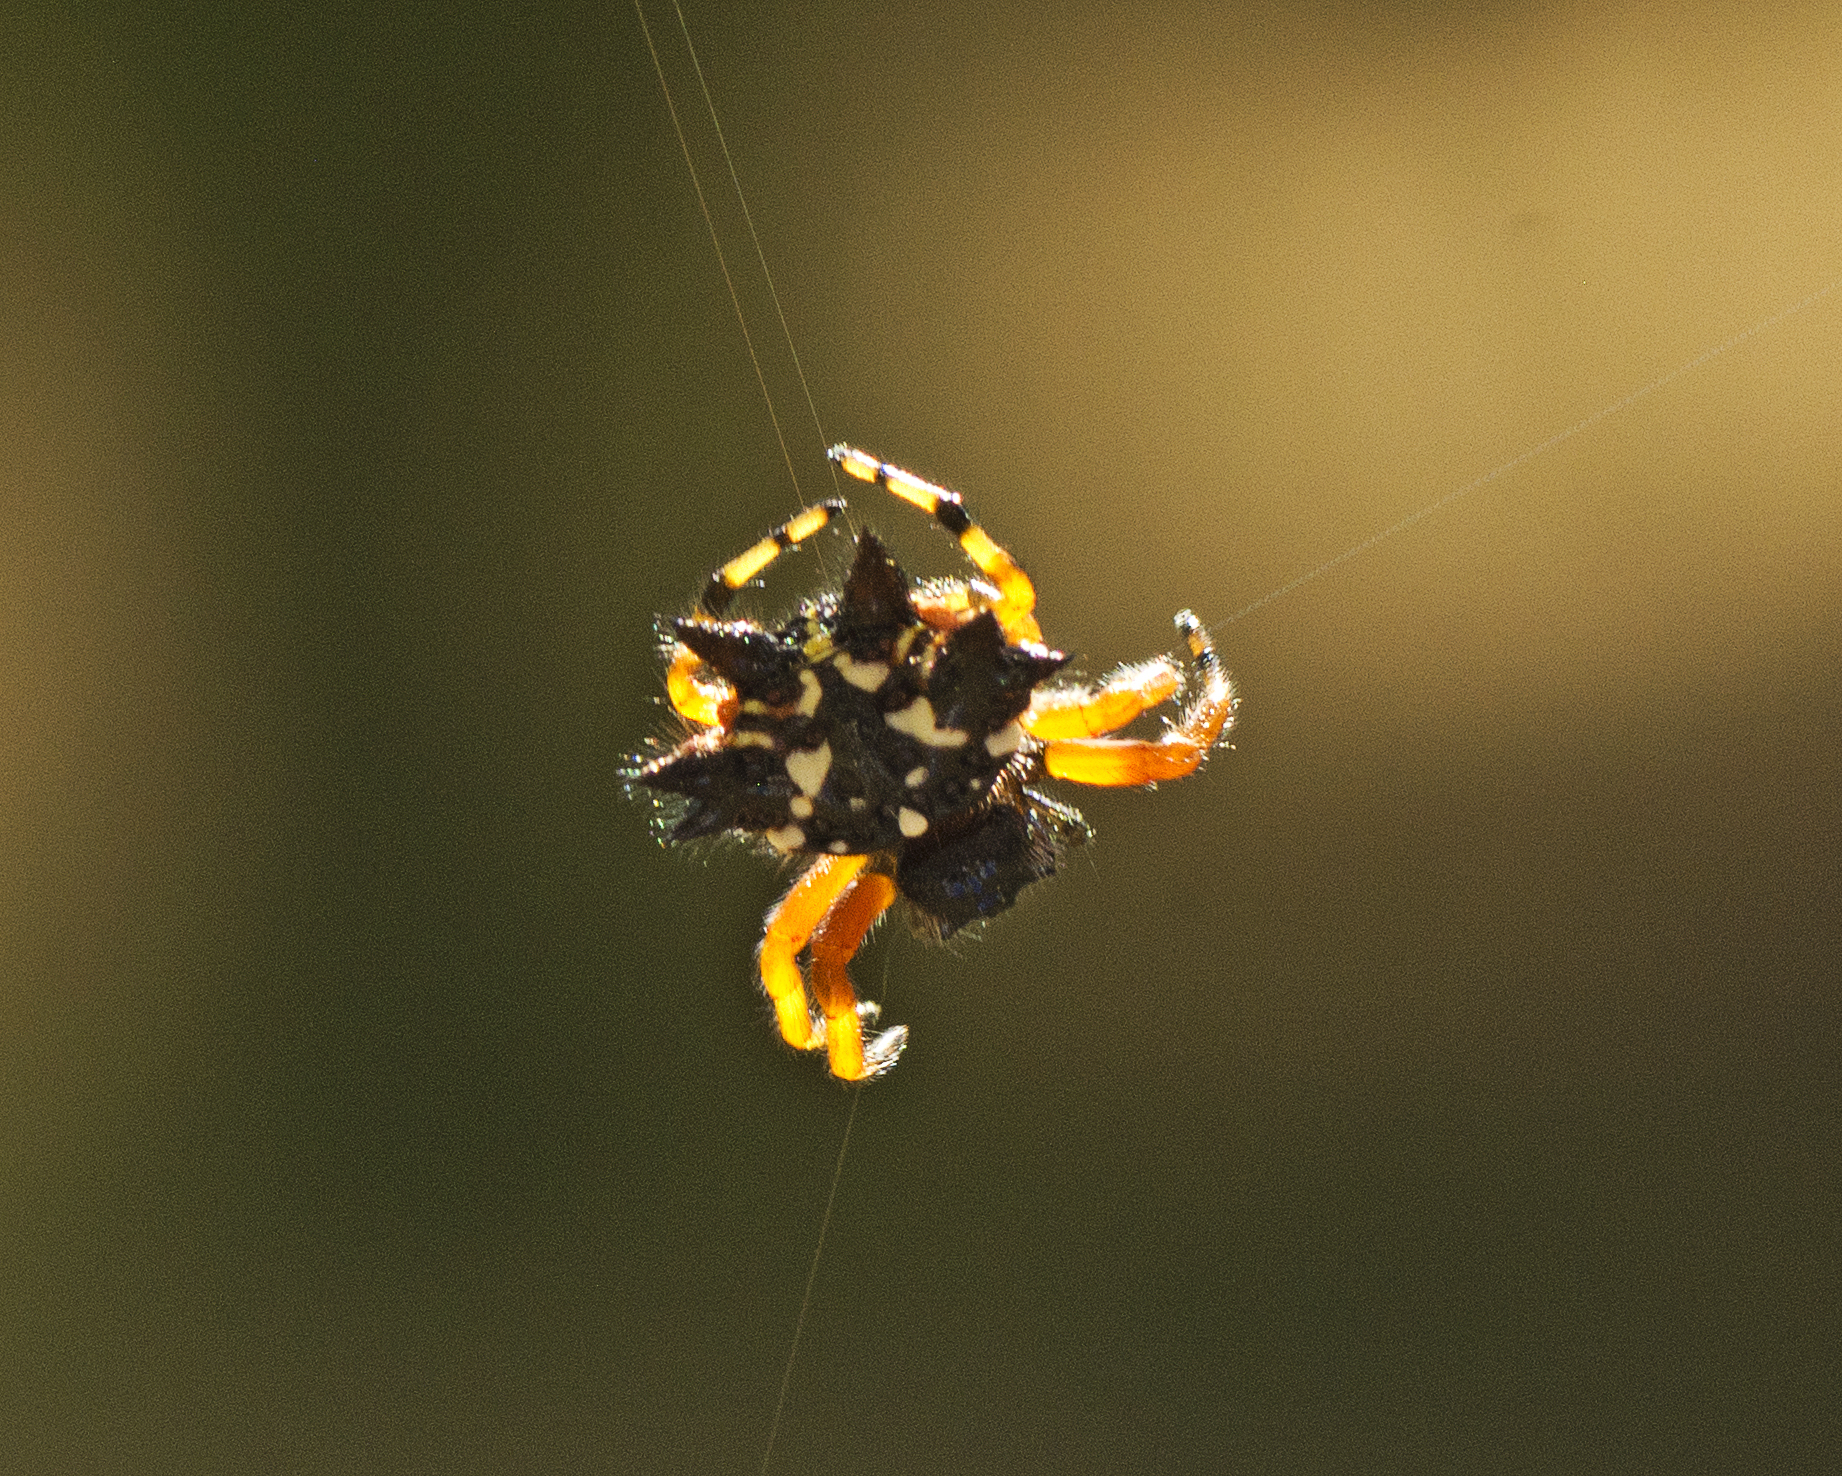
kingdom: Animalia
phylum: Arthropoda
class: Arachnida
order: Araneae
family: Araneidae
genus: Austracantha
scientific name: Austracantha minax
